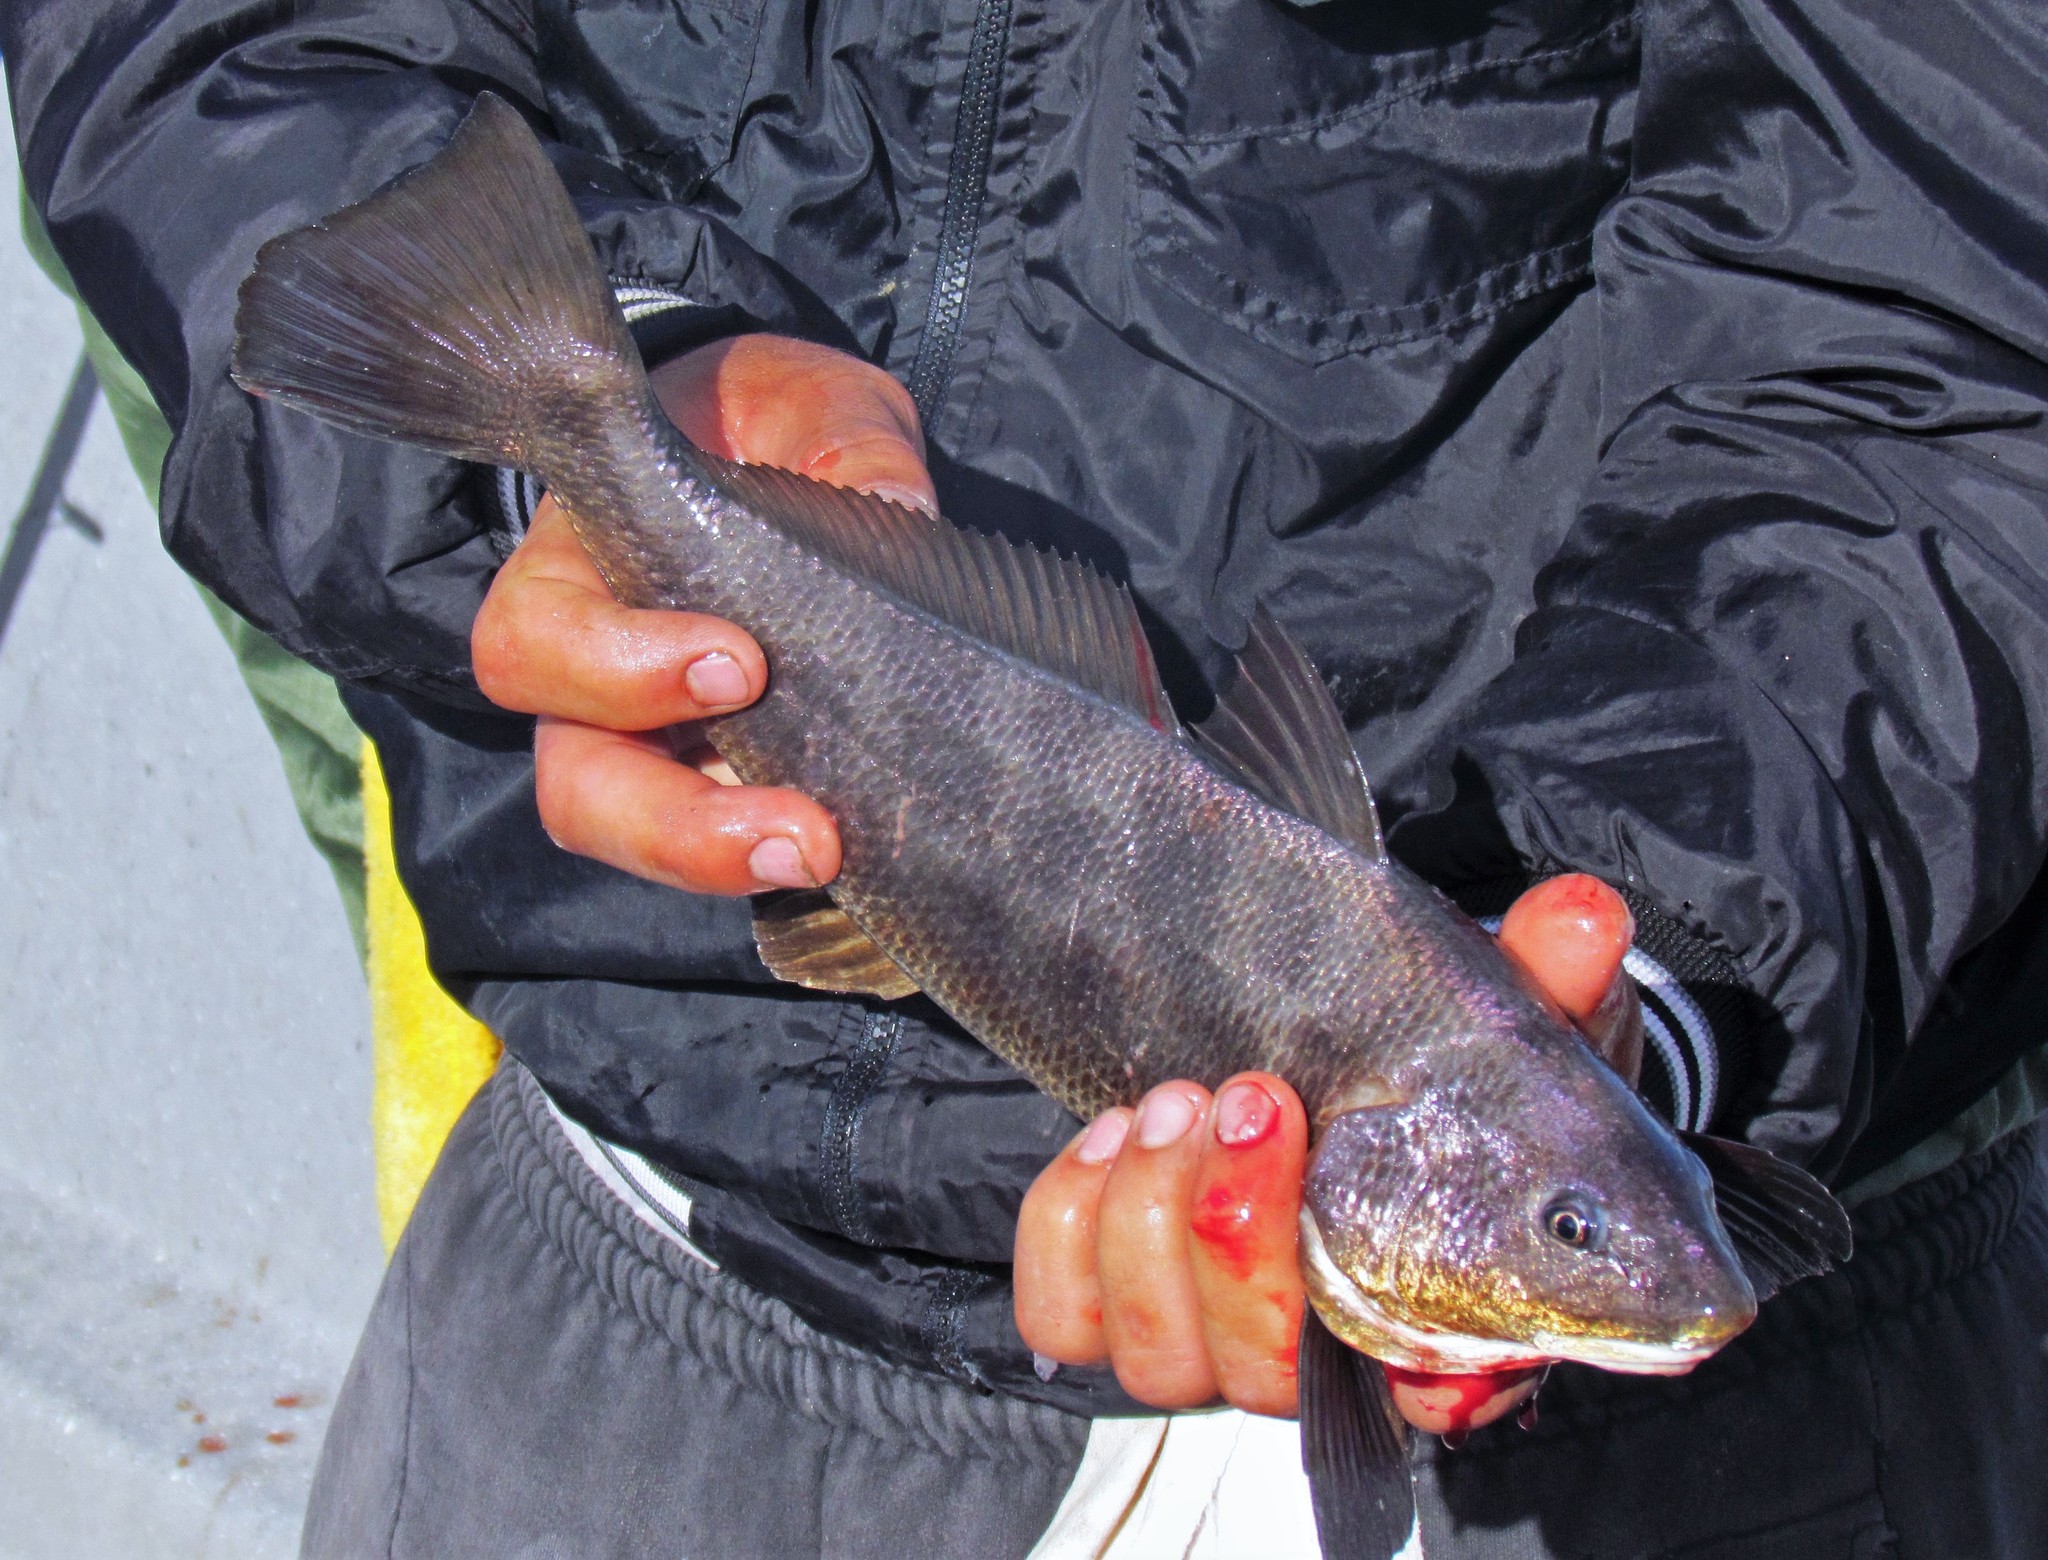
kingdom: Animalia
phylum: Chordata
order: Perciformes
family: Sciaenidae
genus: Menticirrhus
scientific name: Menticirrhus americanus
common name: Southern kingfish
